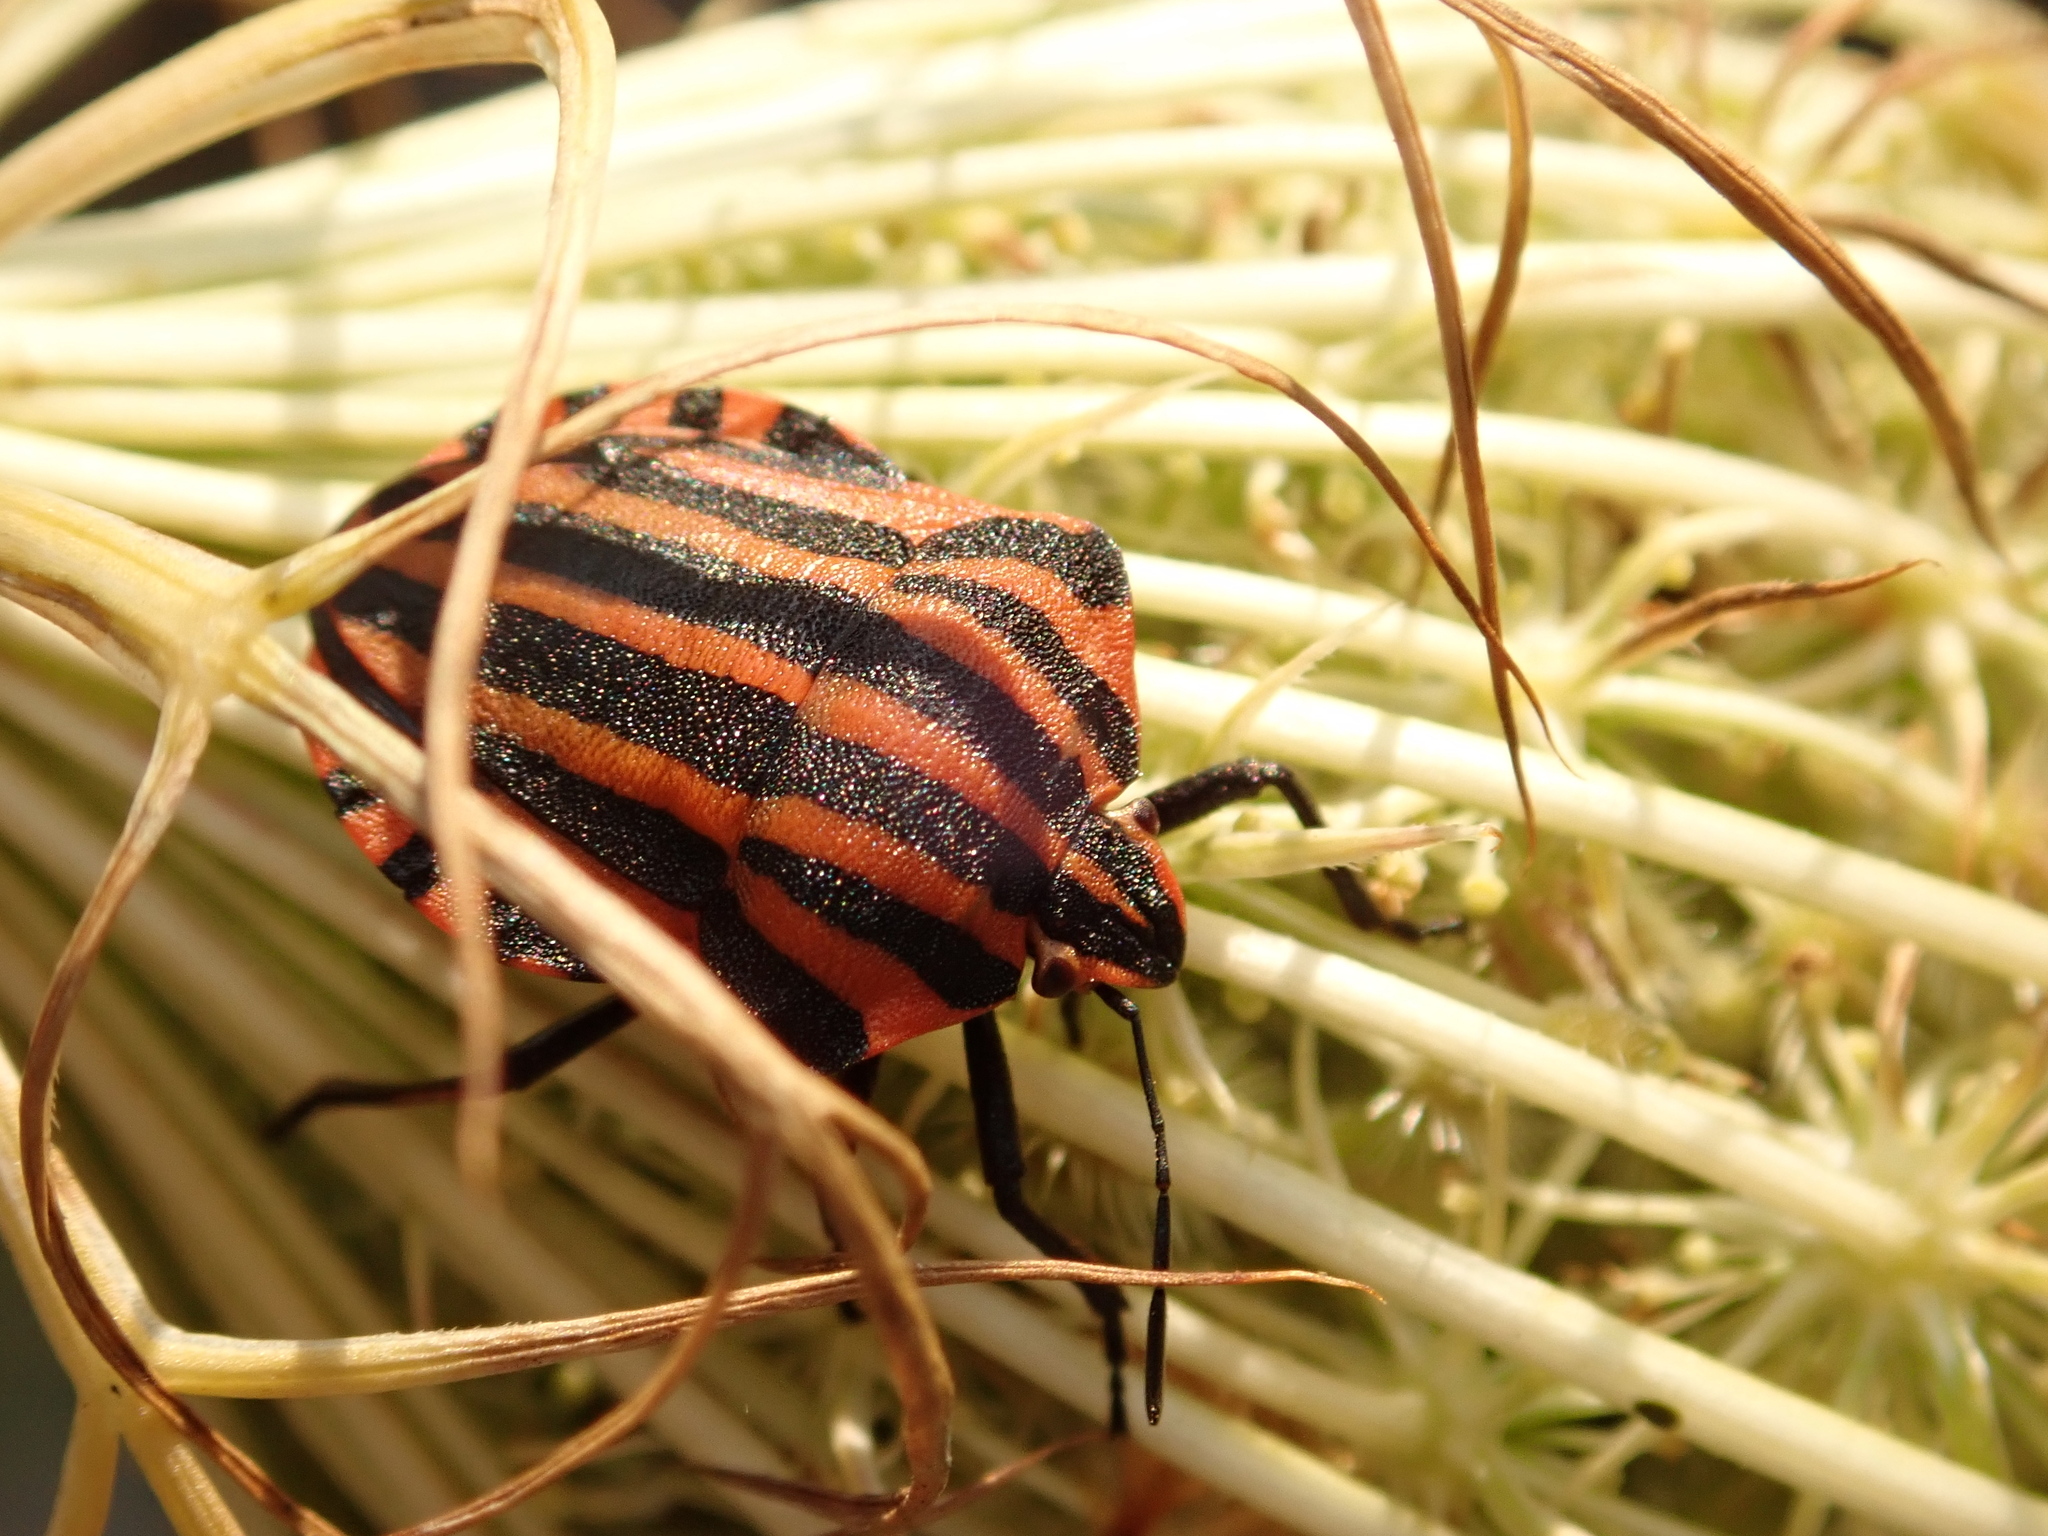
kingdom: Animalia
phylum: Arthropoda
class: Insecta
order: Hemiptera
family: Pentatomidae
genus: Graphosoma
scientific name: Graphosoma italicum
